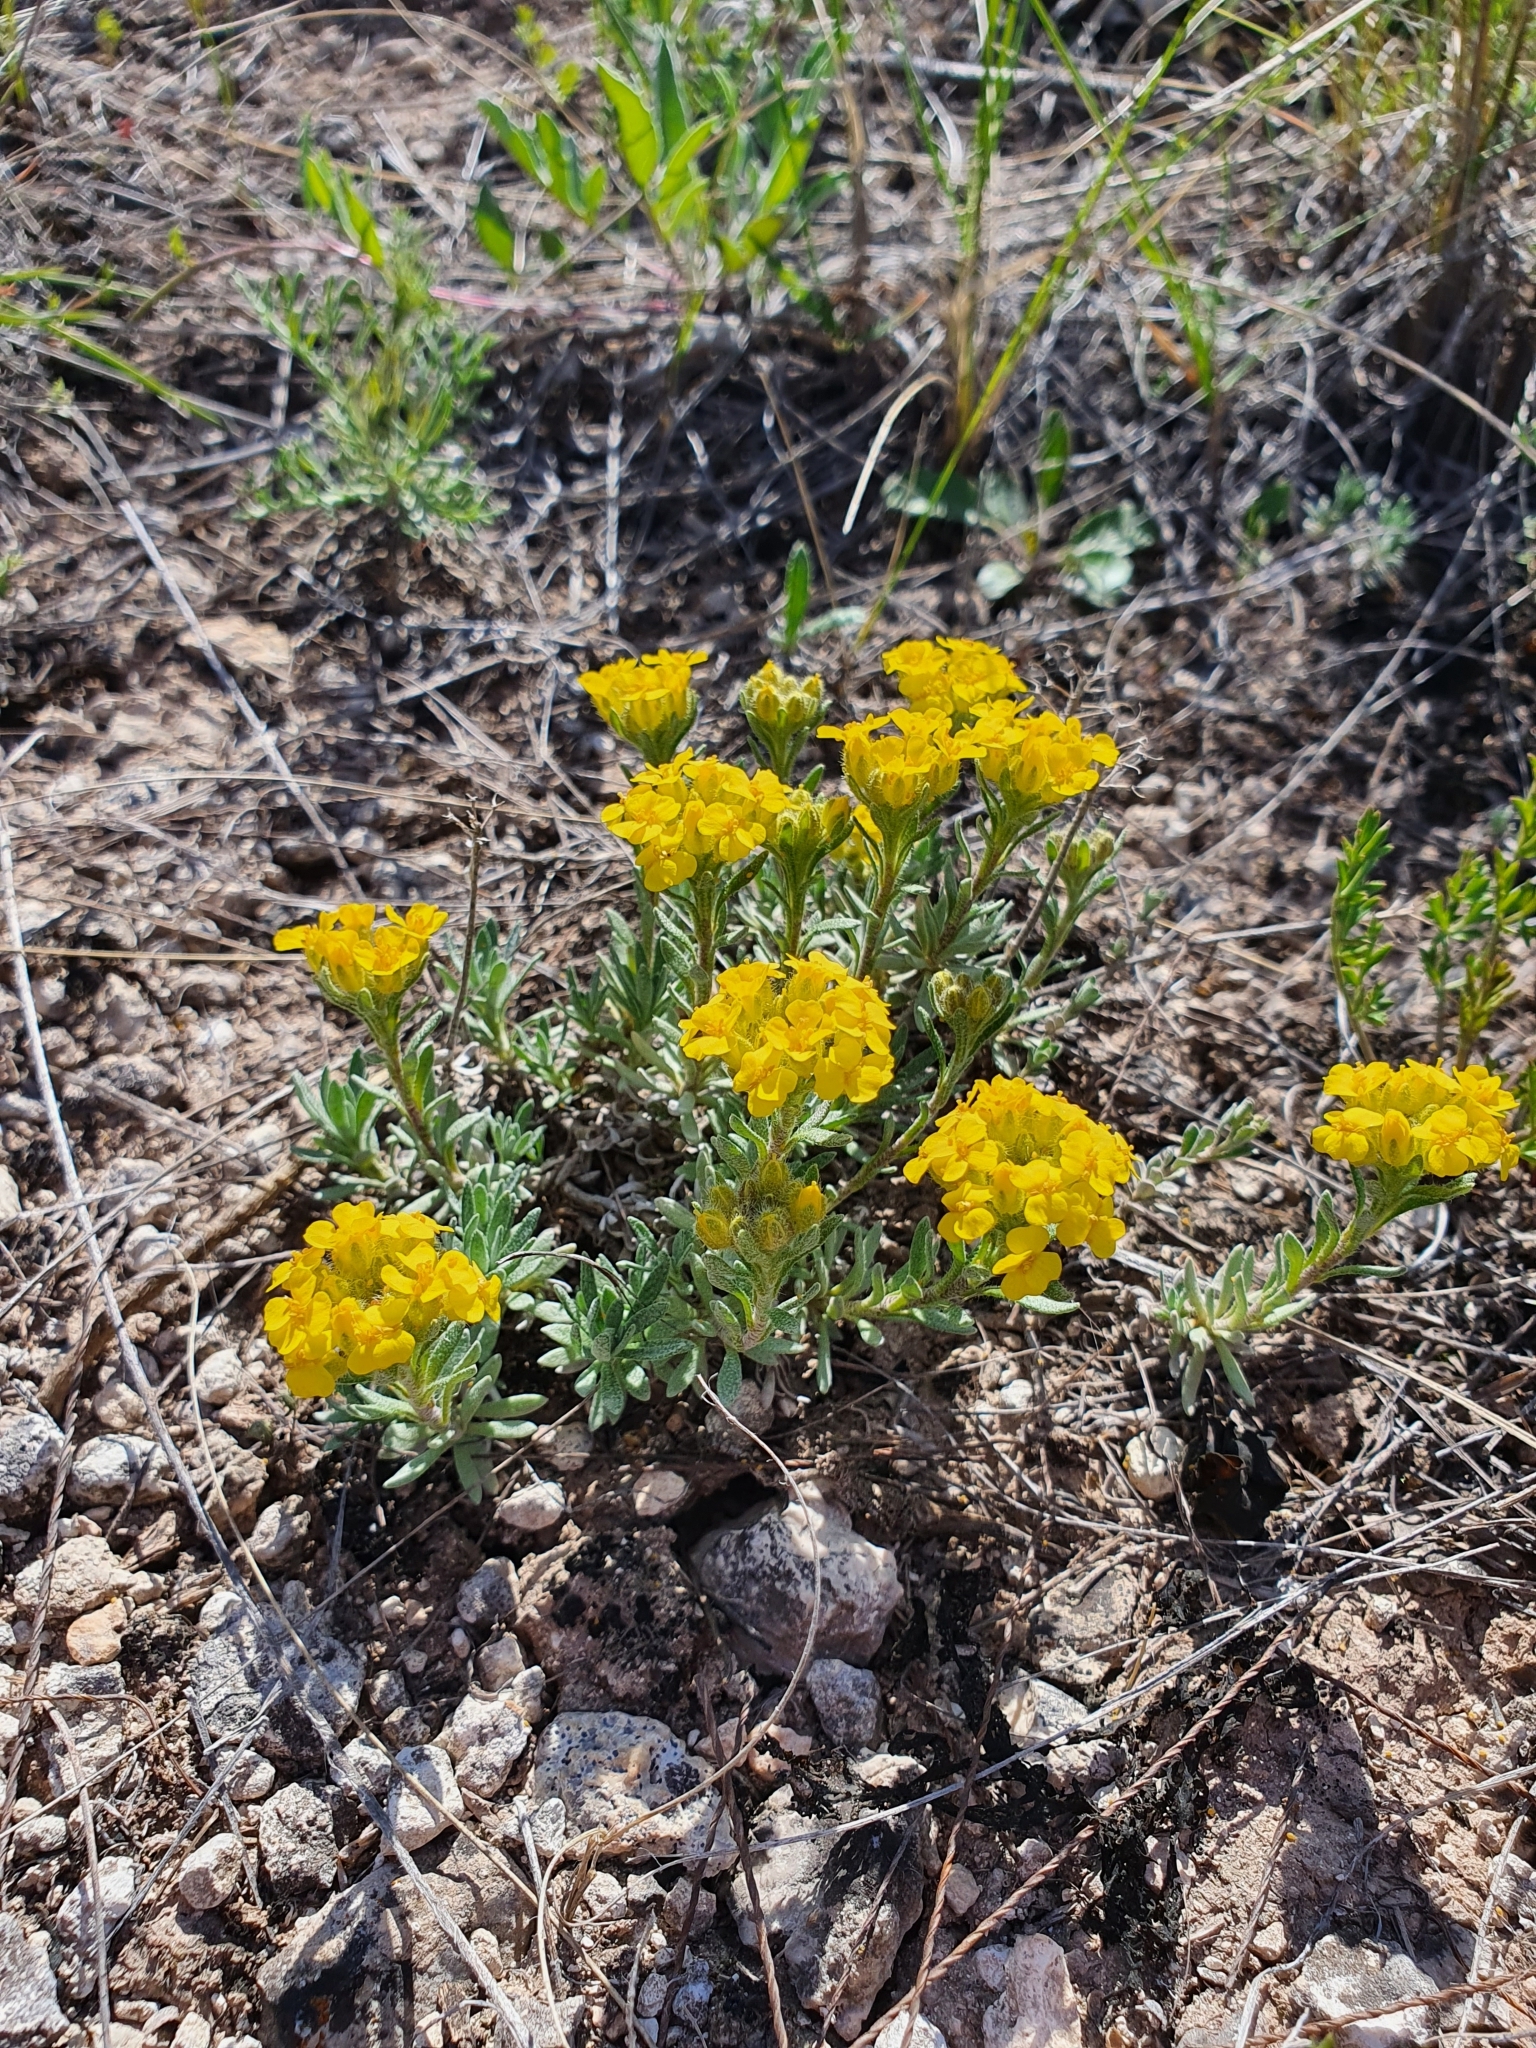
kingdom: Plantae
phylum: Tracheophyta
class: Magnoliopsida
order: Brassicales
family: Brassicaceae
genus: Alyssum
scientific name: Alyssum lenense
